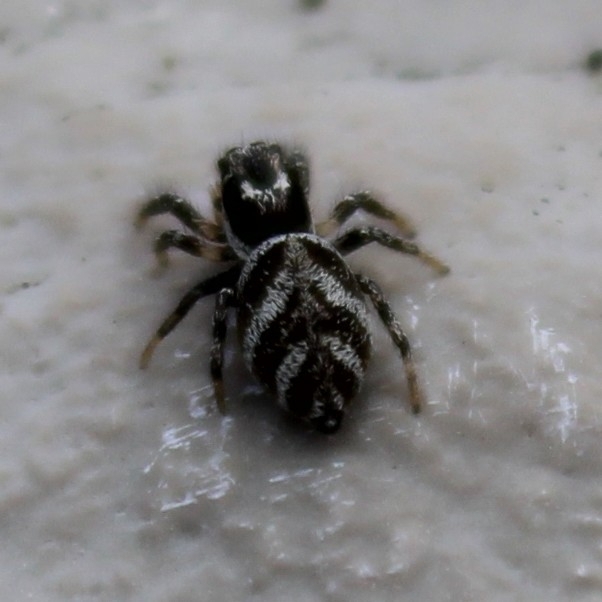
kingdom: Animalia
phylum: Arthropoda
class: Arachnida
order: Araneae
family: Salticidae
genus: Salticus
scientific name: Salticus scenicus
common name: Zebra jumper
